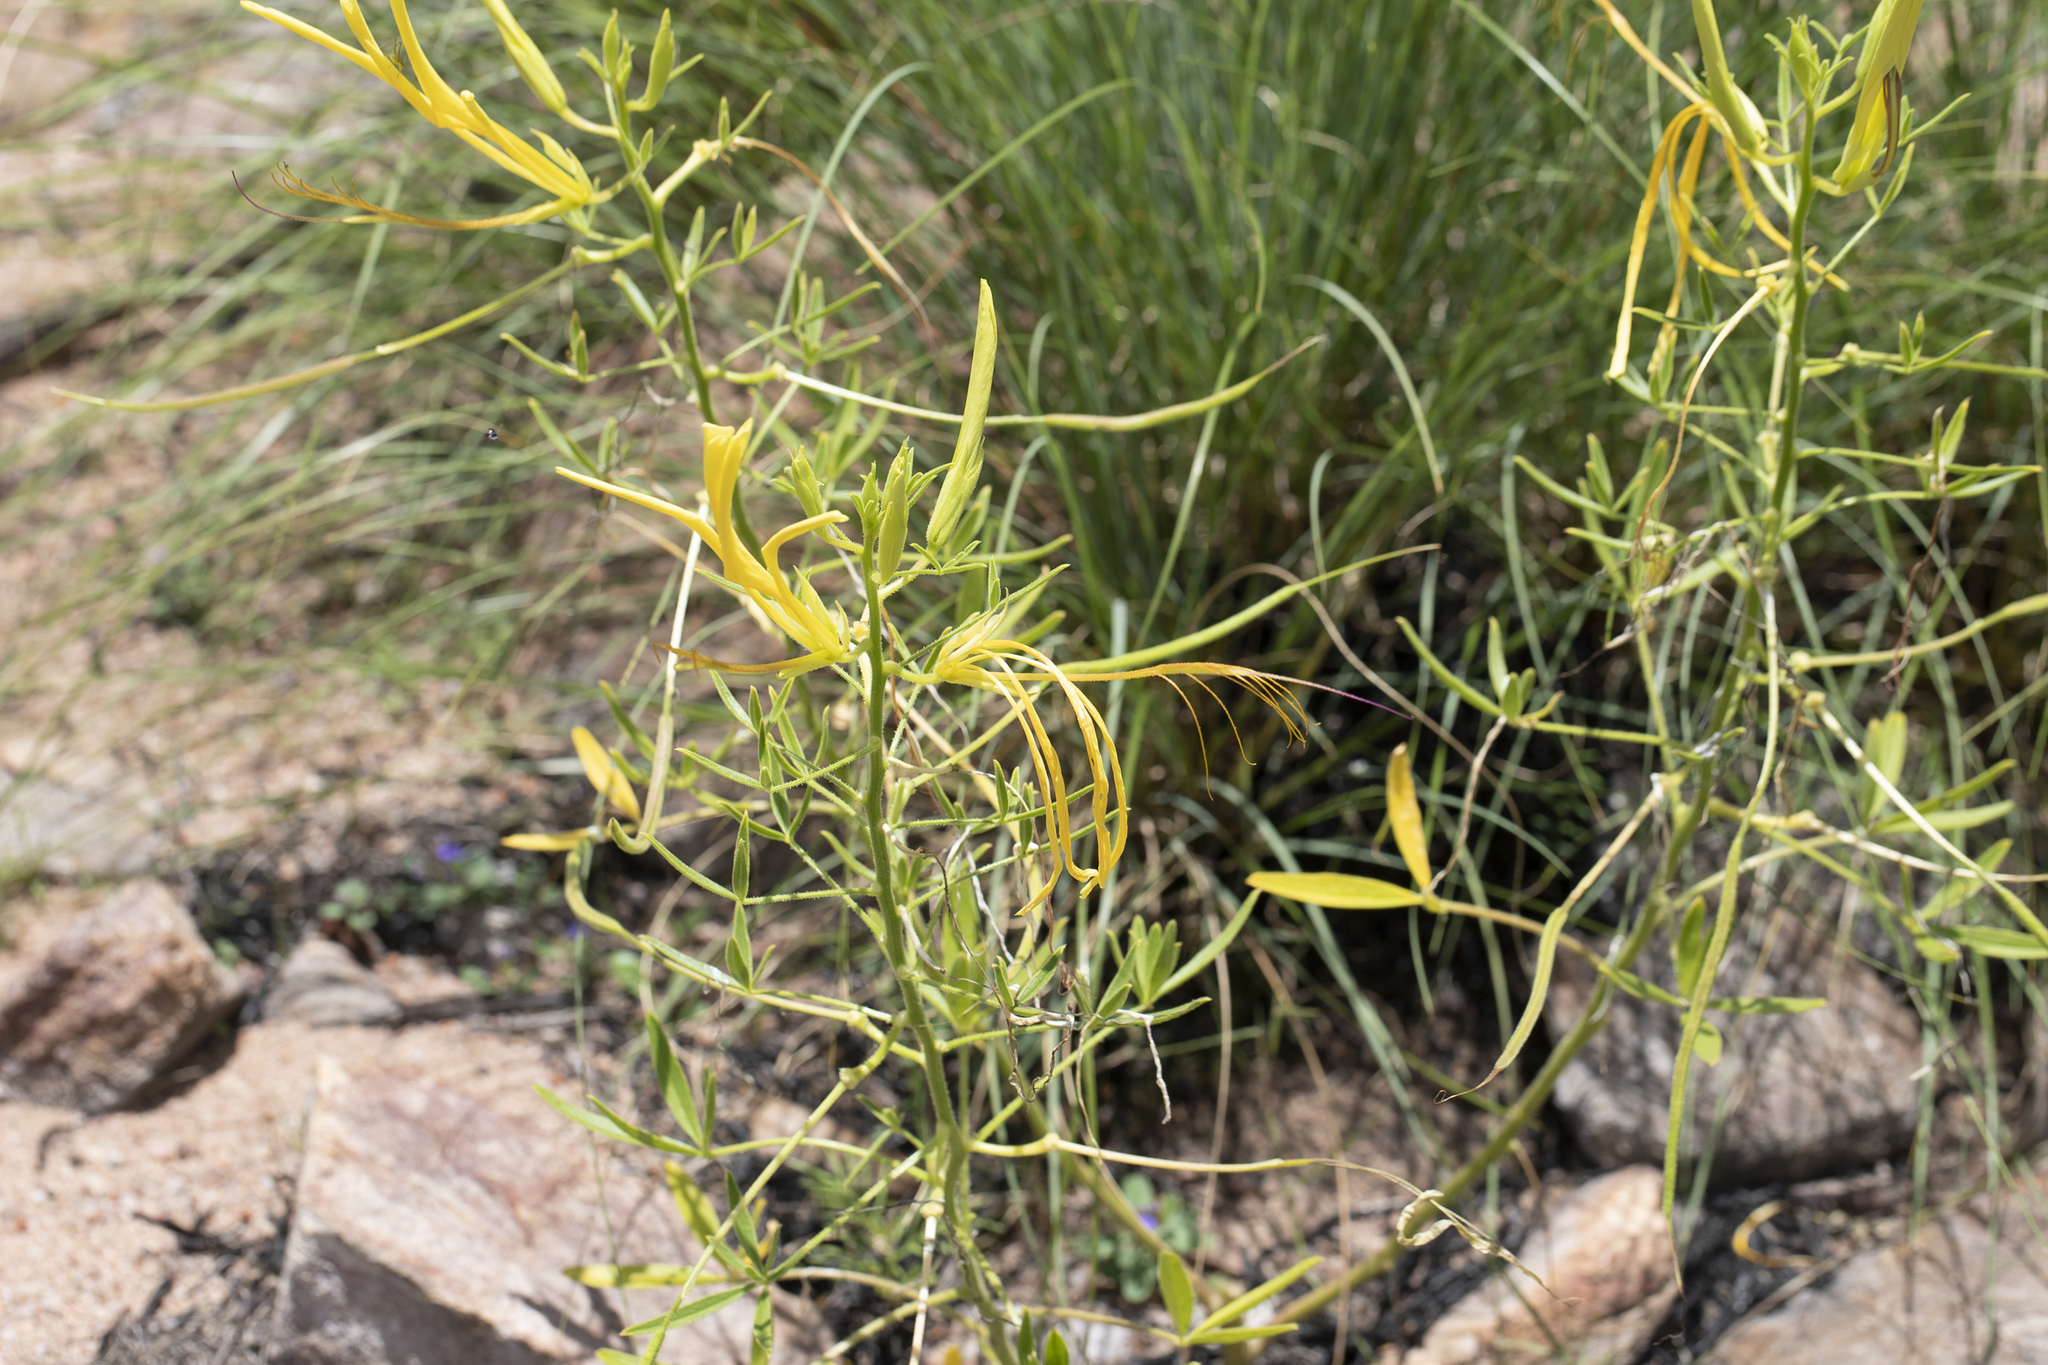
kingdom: Plantae
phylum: Tracheophyta
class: Magnoliopsida
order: Brassicales
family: Cleomaceae
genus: Arivela
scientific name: Arivela cleomoides
